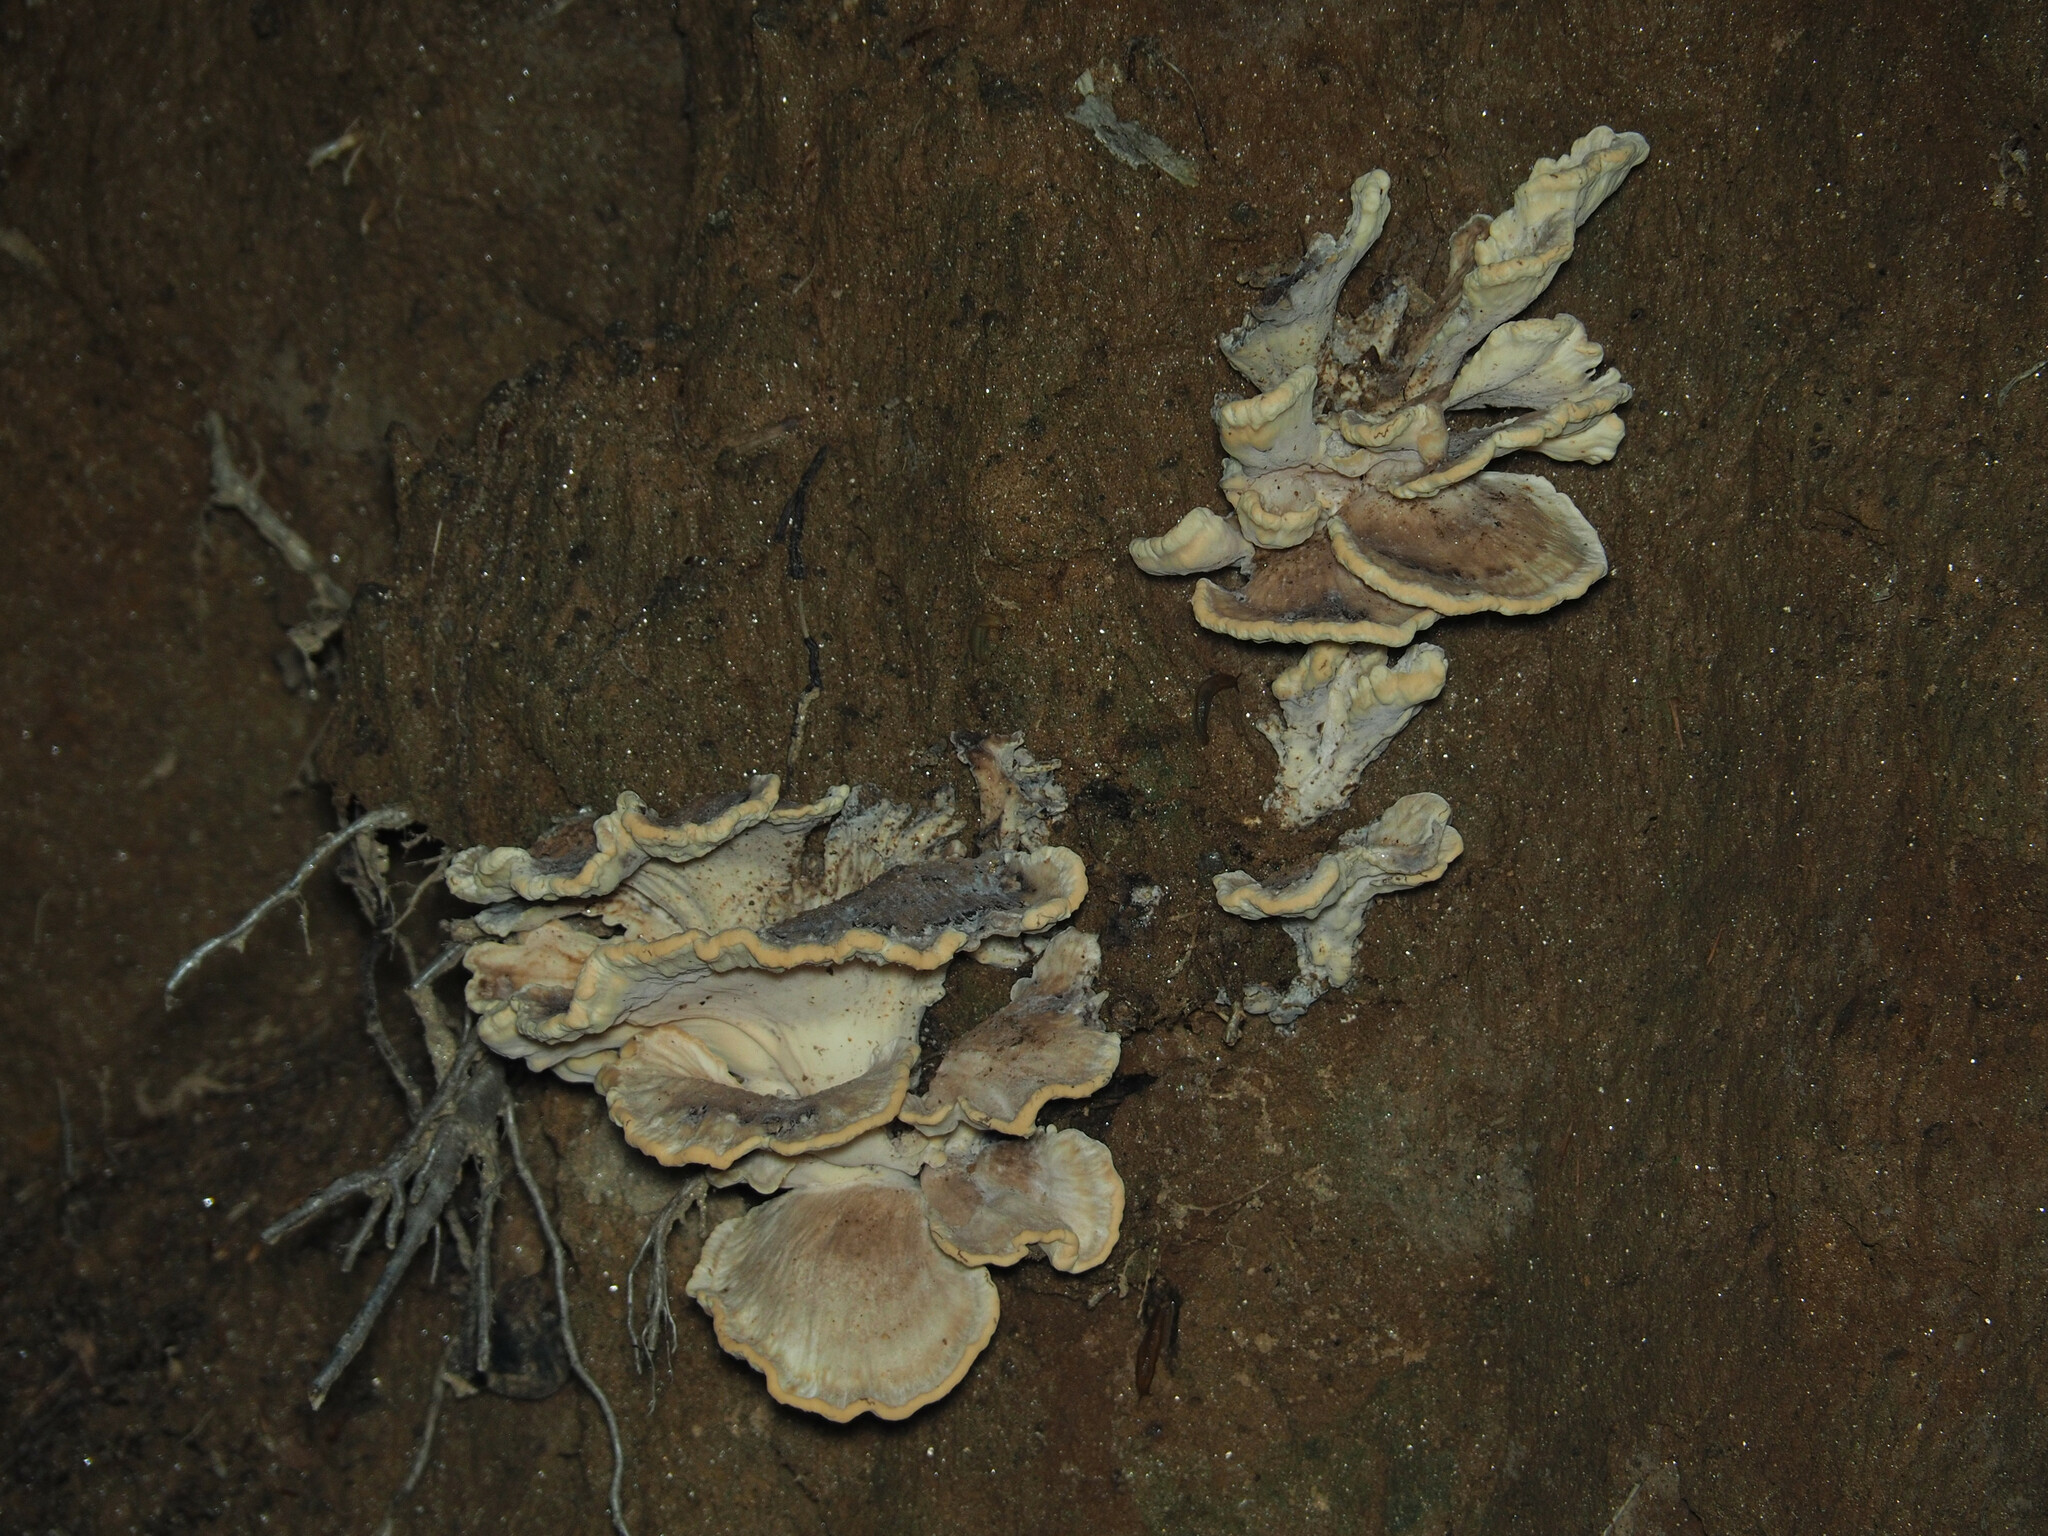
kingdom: Fungi
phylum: Basidiomycota
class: Agaricomycetes
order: Polyporales
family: Meripilaceae
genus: Meripilus
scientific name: Meripilus sumstinei
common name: Black-staining polypore
